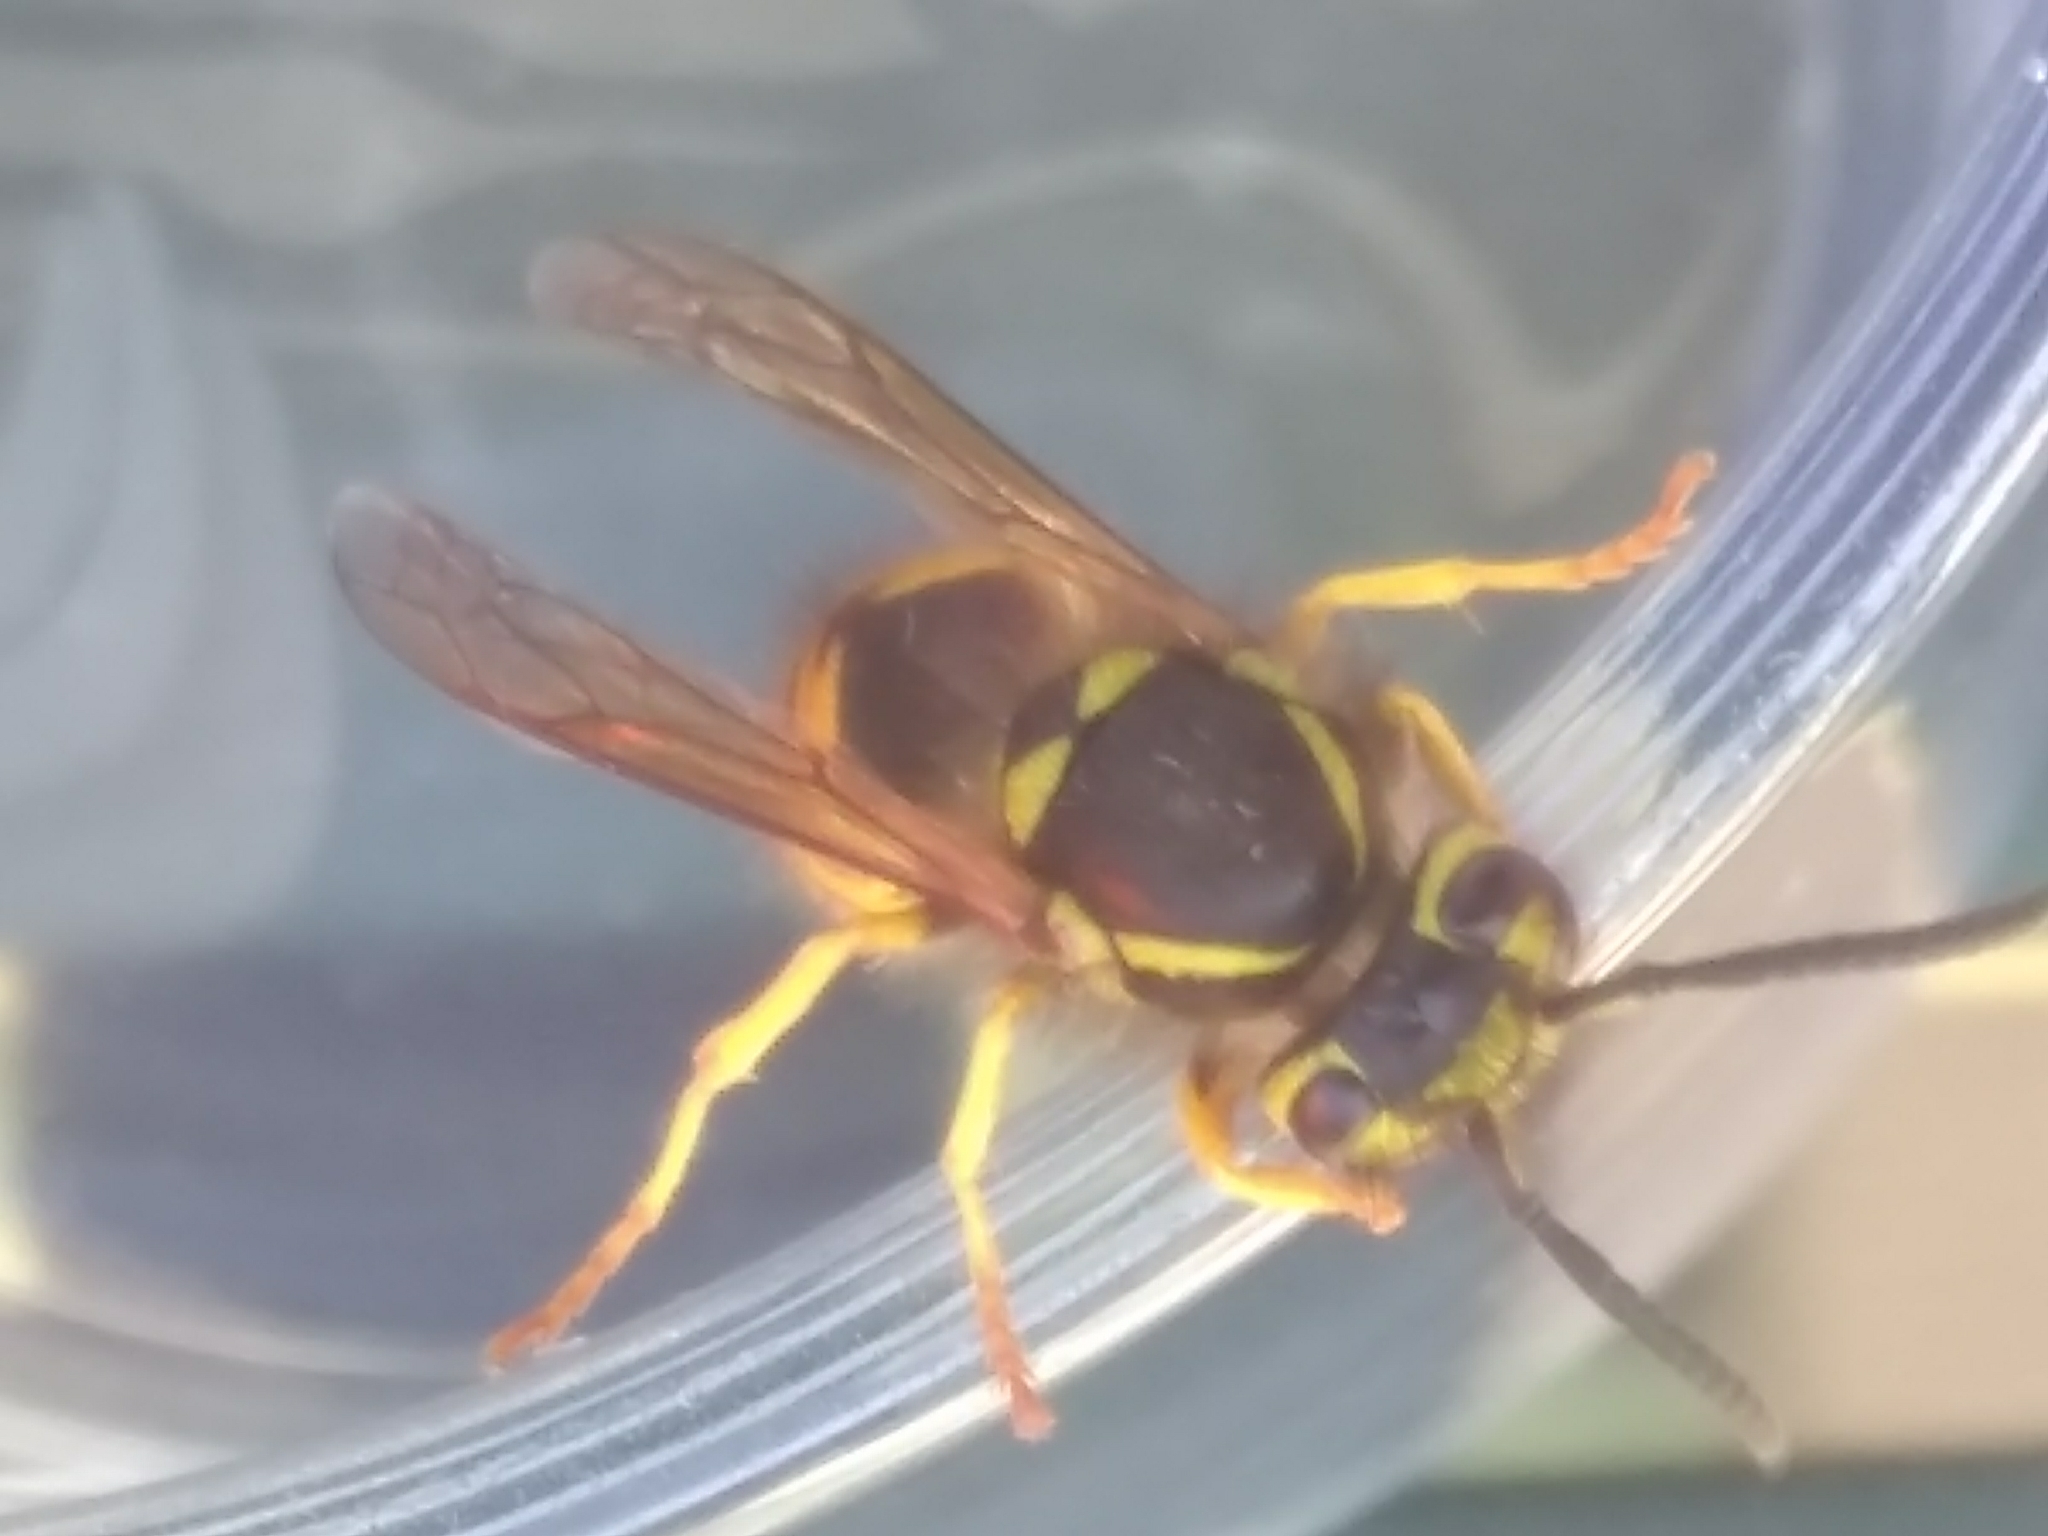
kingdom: Animalia
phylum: Arthropoda
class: Insecta
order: Hymenoptera
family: Vespidae
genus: Vespula
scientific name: Vespula pensylvanica
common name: Western yellowjacket
